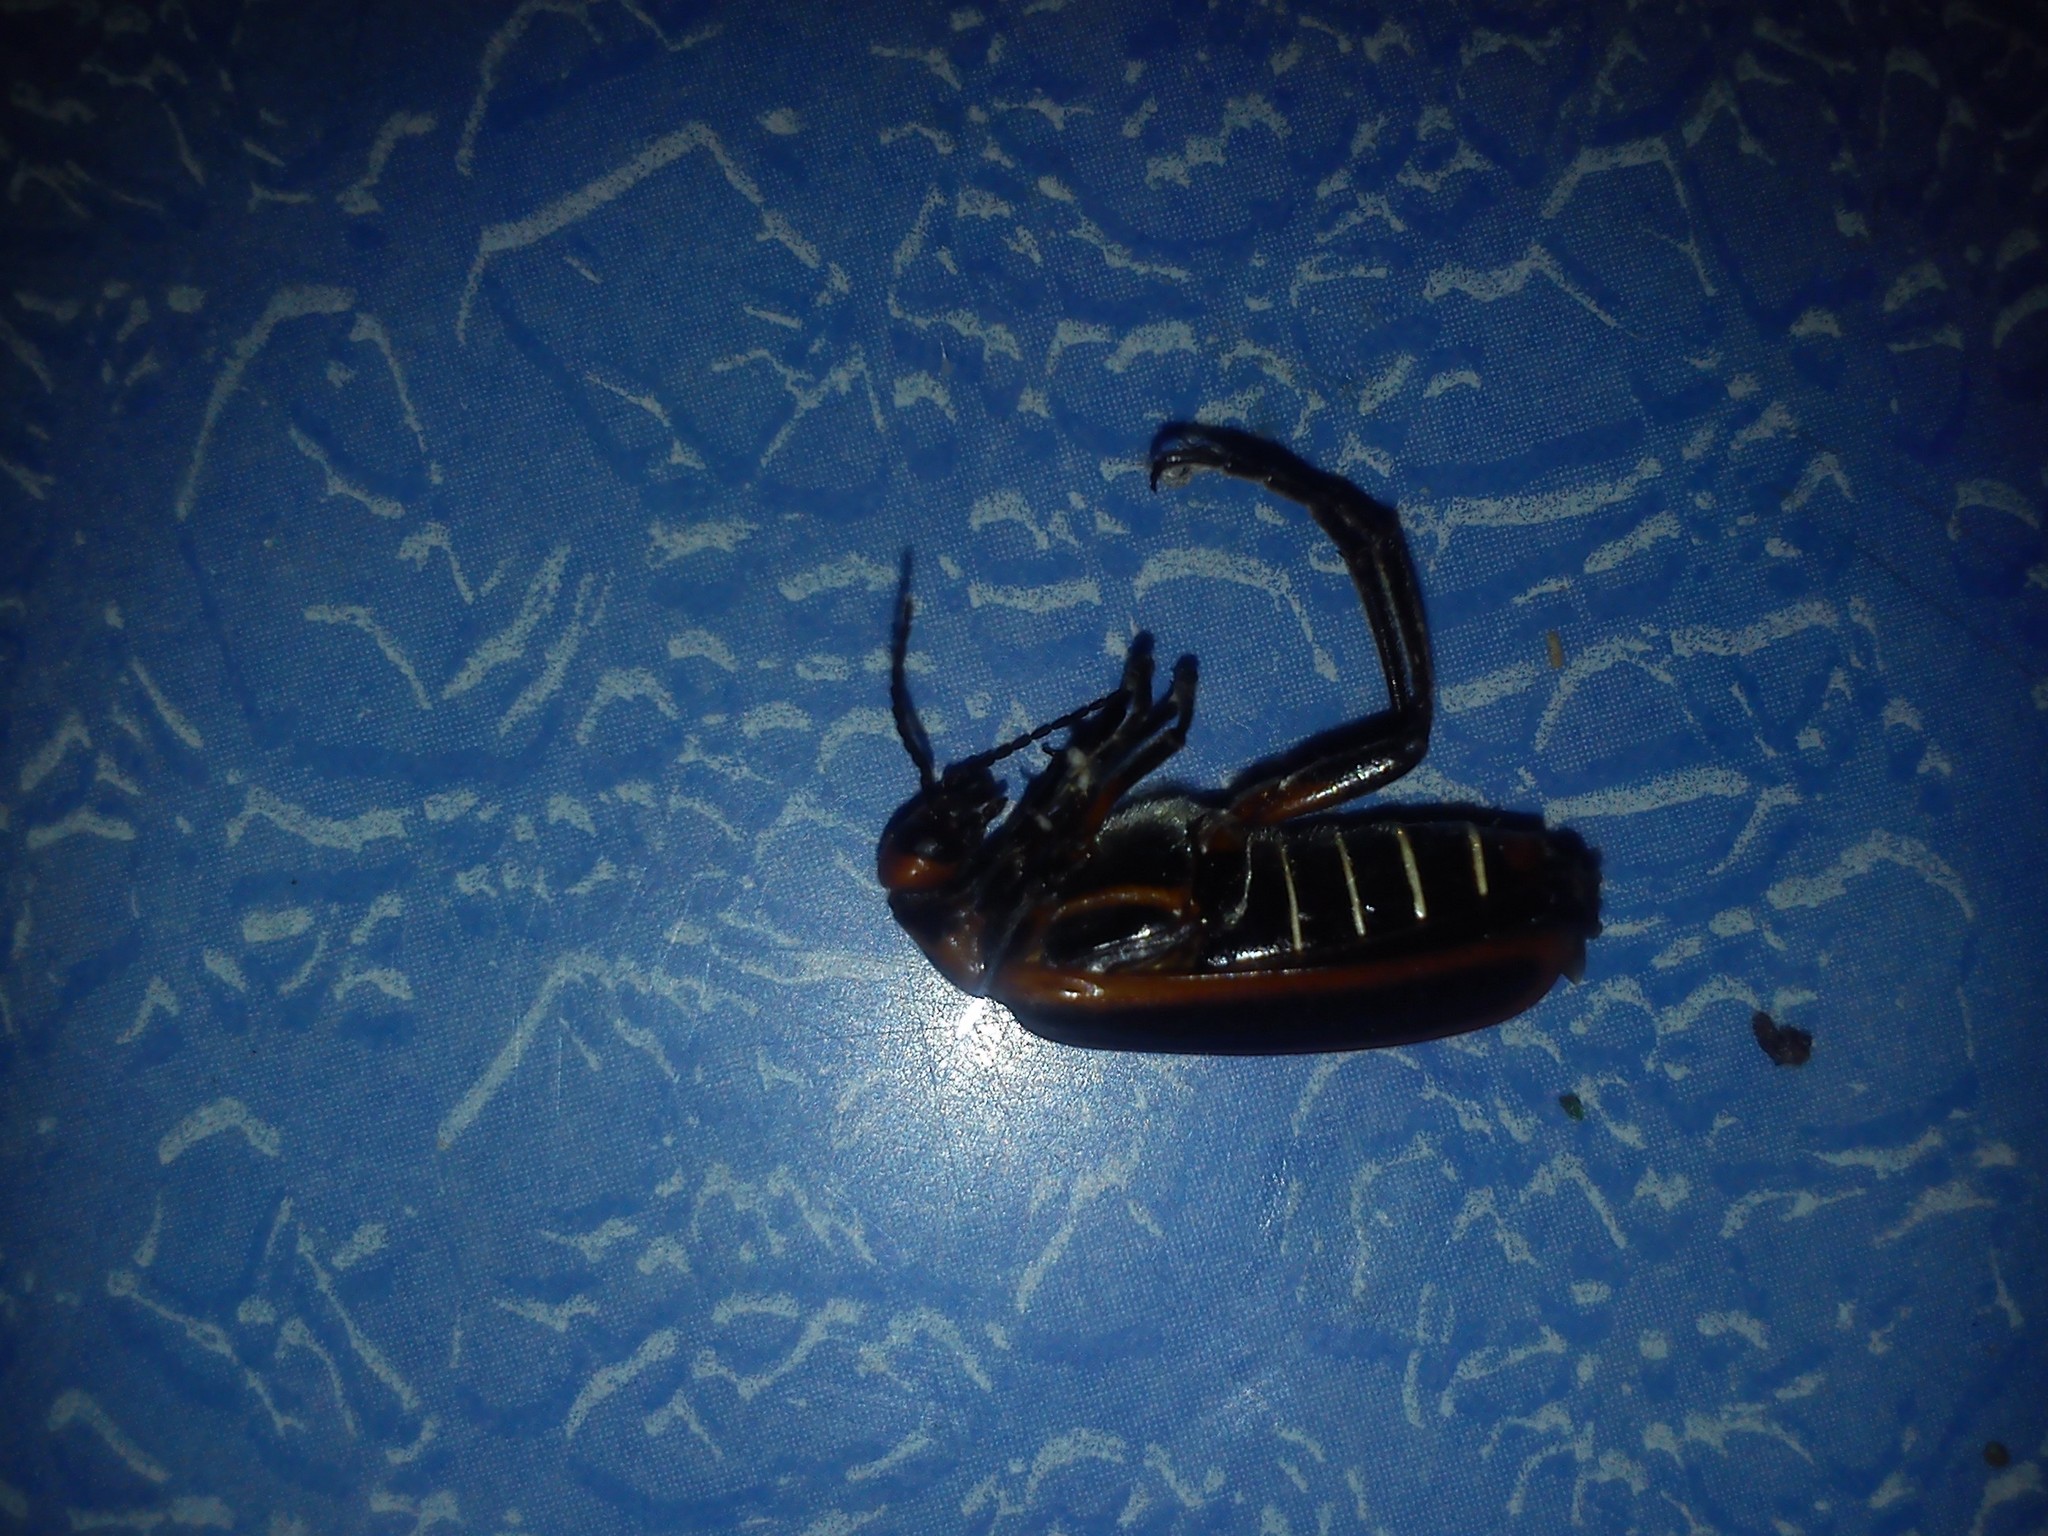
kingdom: Animalia
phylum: Arthropoda
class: Insecta
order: Coleoptera
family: Meloidae
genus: Pyrota
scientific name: Pyrota tenuicostatis
